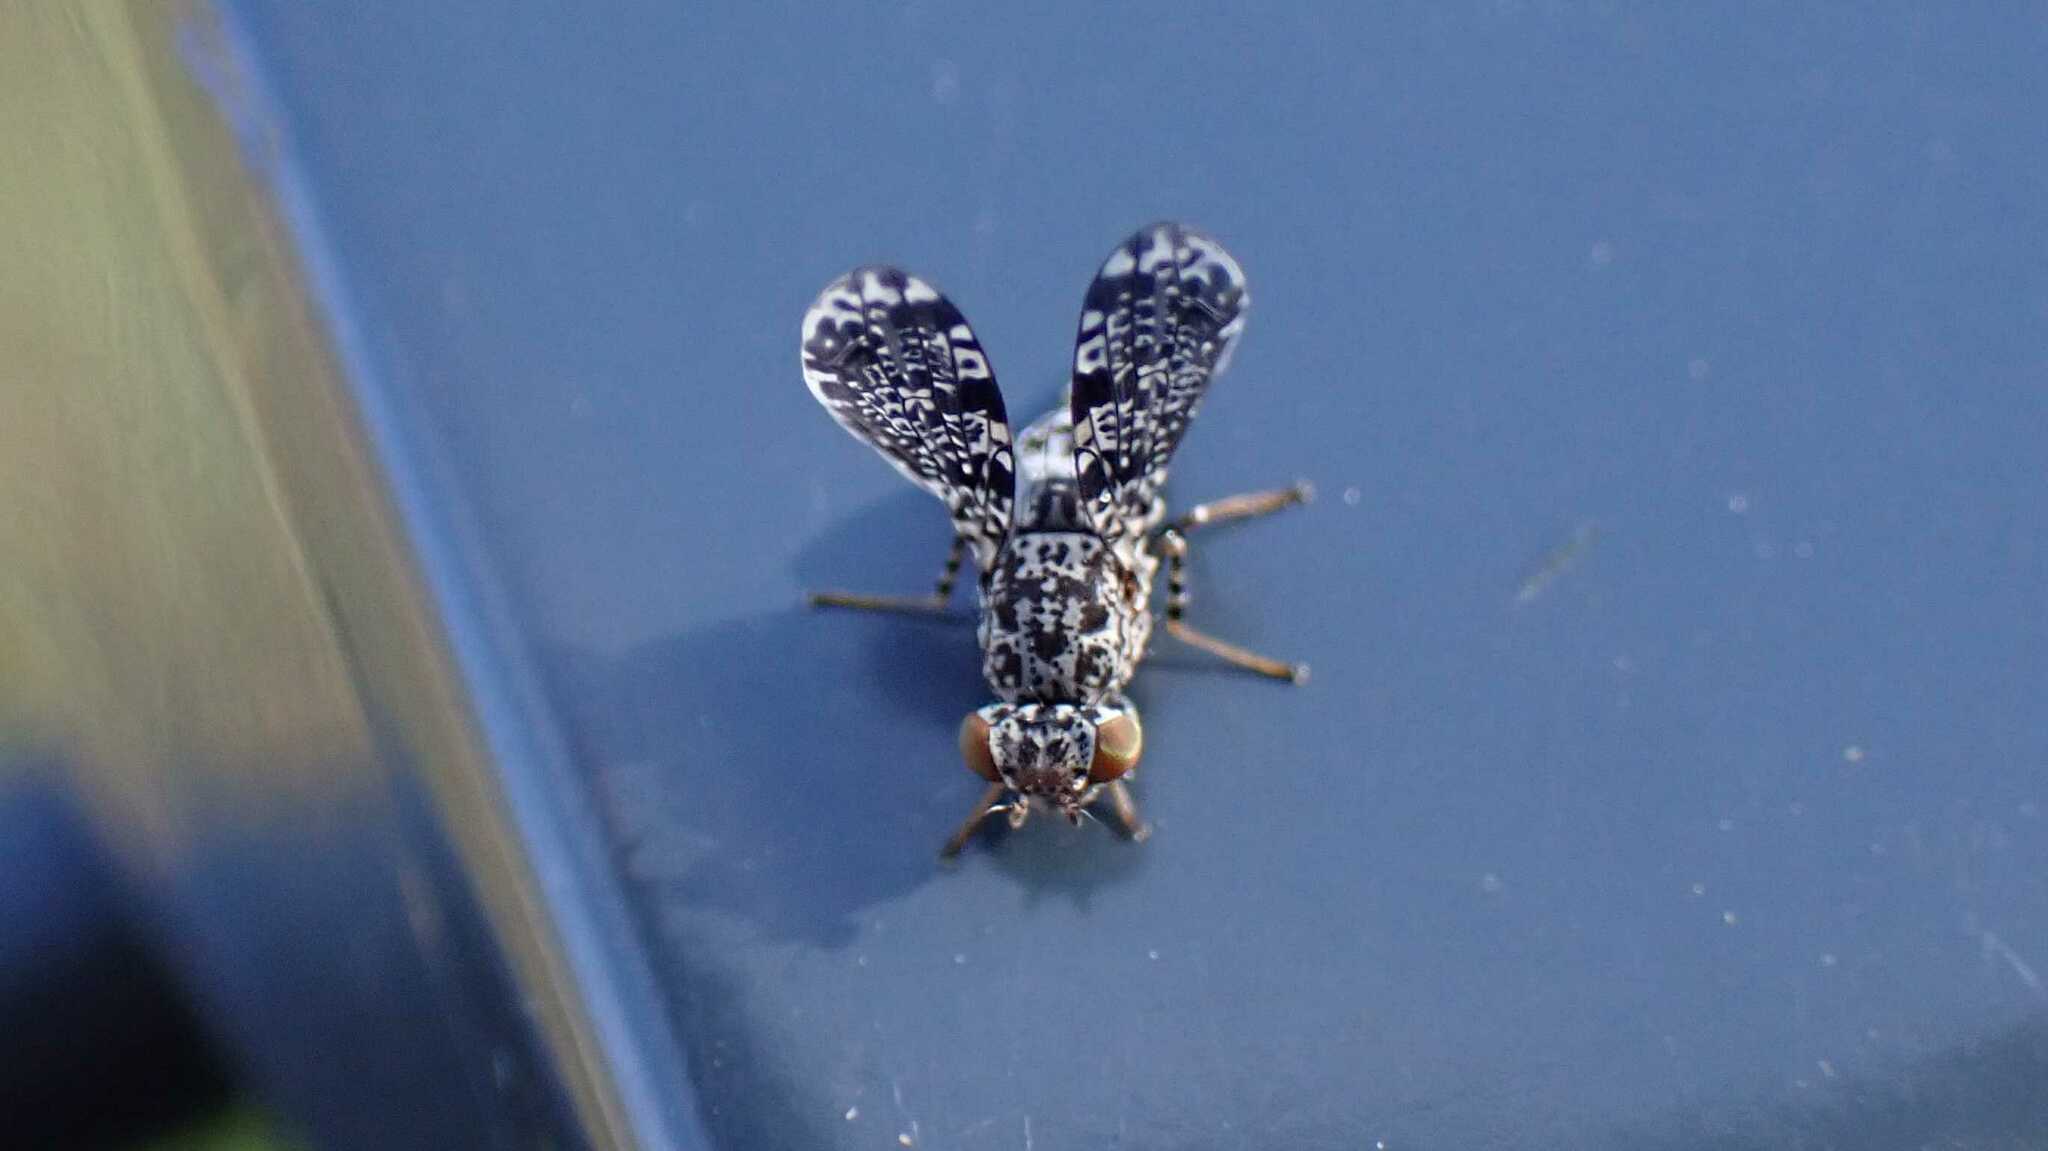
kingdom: Animalia
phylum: Arthropoda
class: Insecta
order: Diptera
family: Ulidiidae
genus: Callopistromyia
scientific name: Callopistromyia annulipes
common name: Peacock fly
